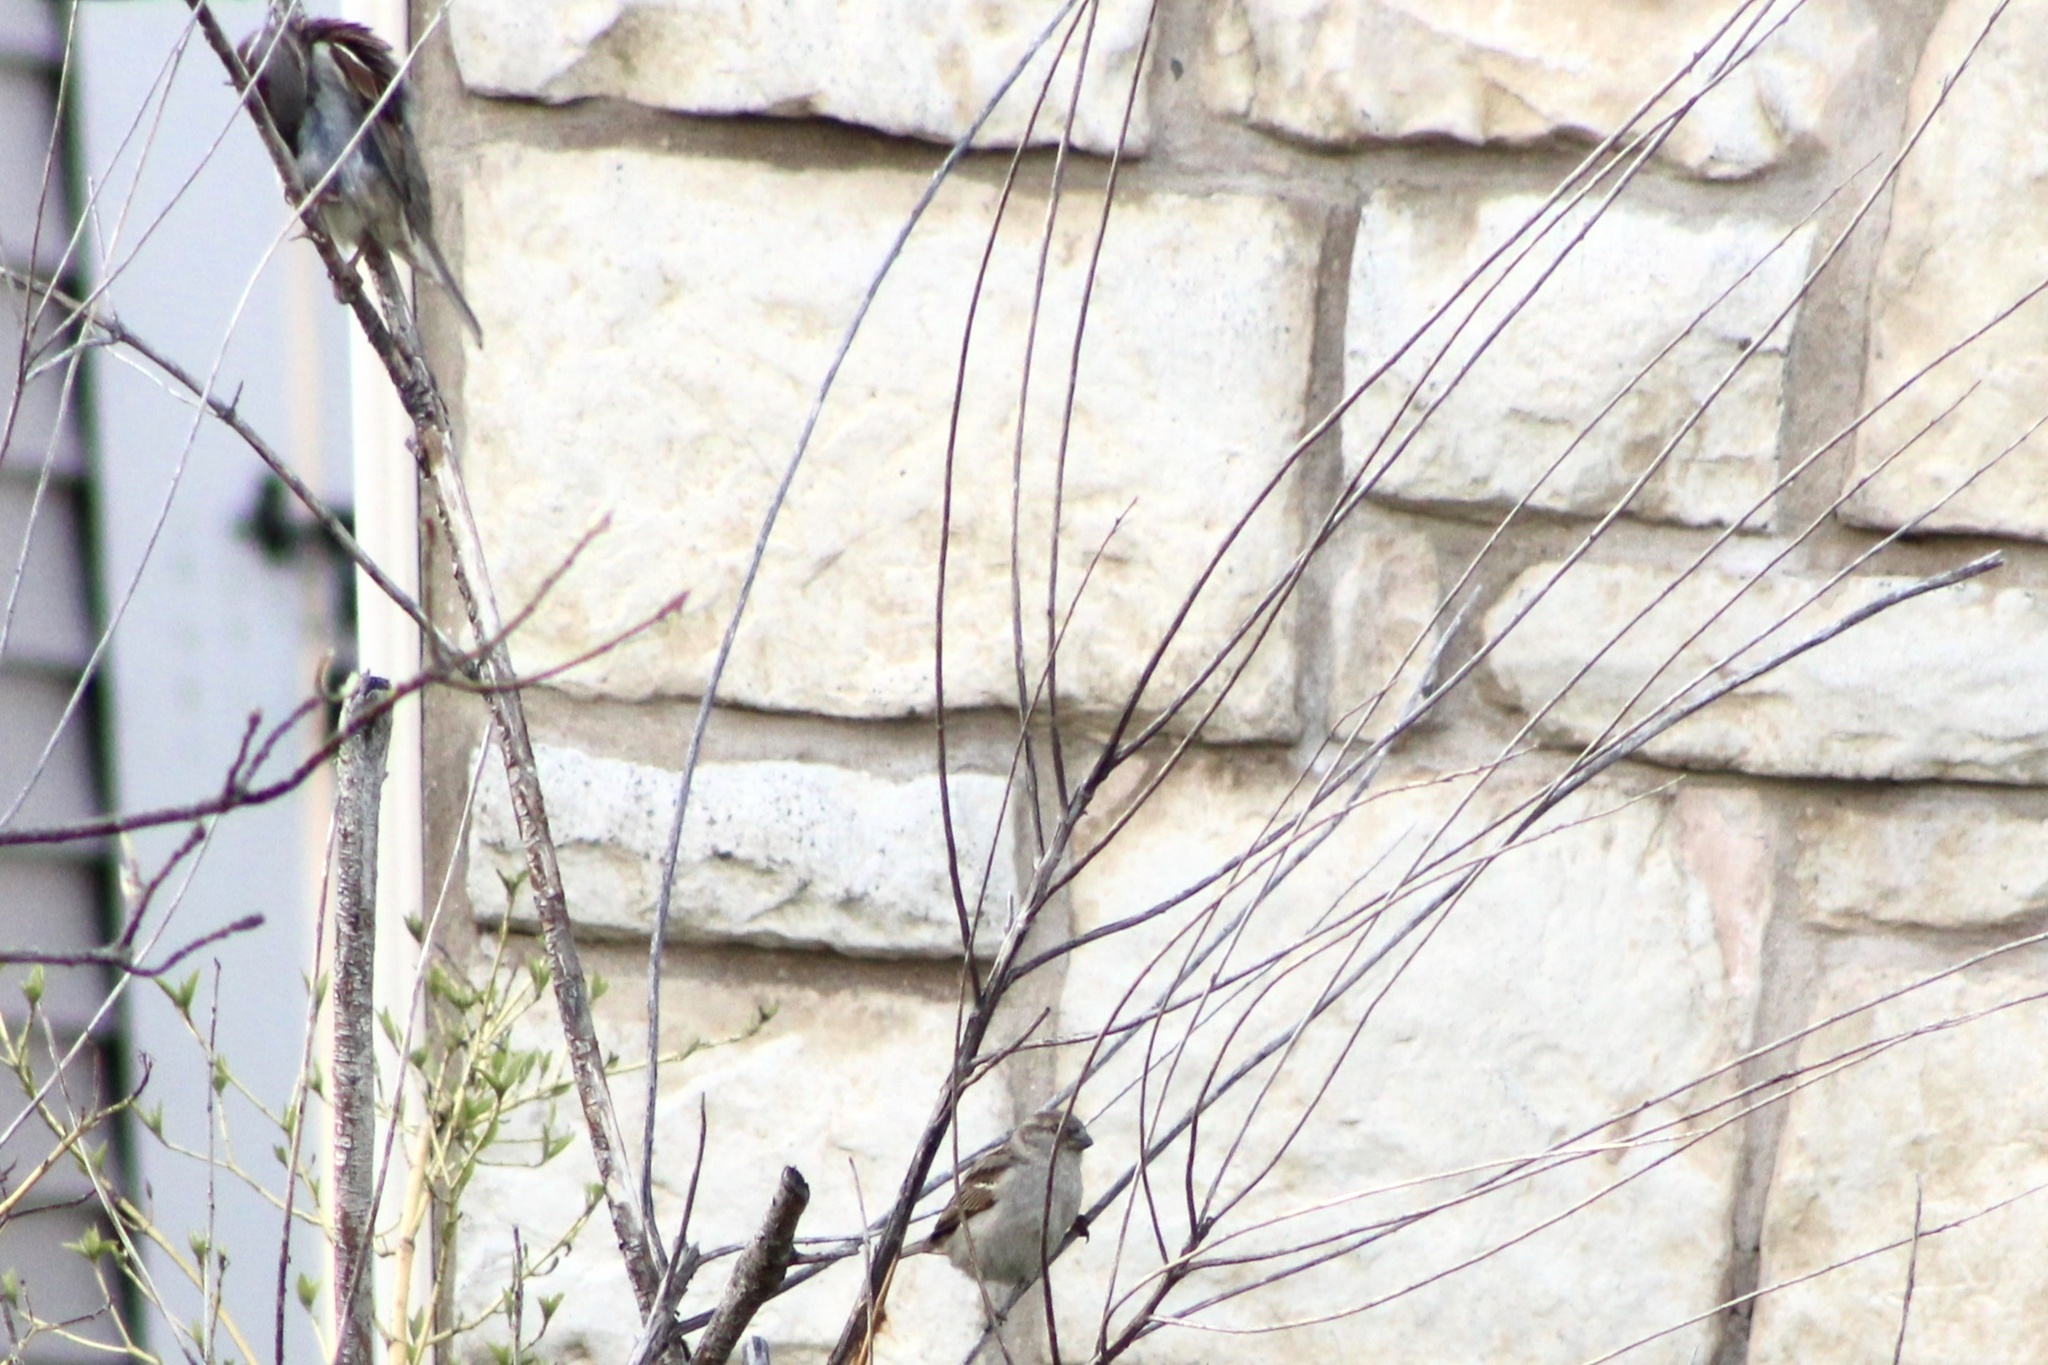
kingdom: Animalia
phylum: Chordata
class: Aves
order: Passeriformes
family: Passeridae
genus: Passer
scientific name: Passer domesticus
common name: House sparrow
